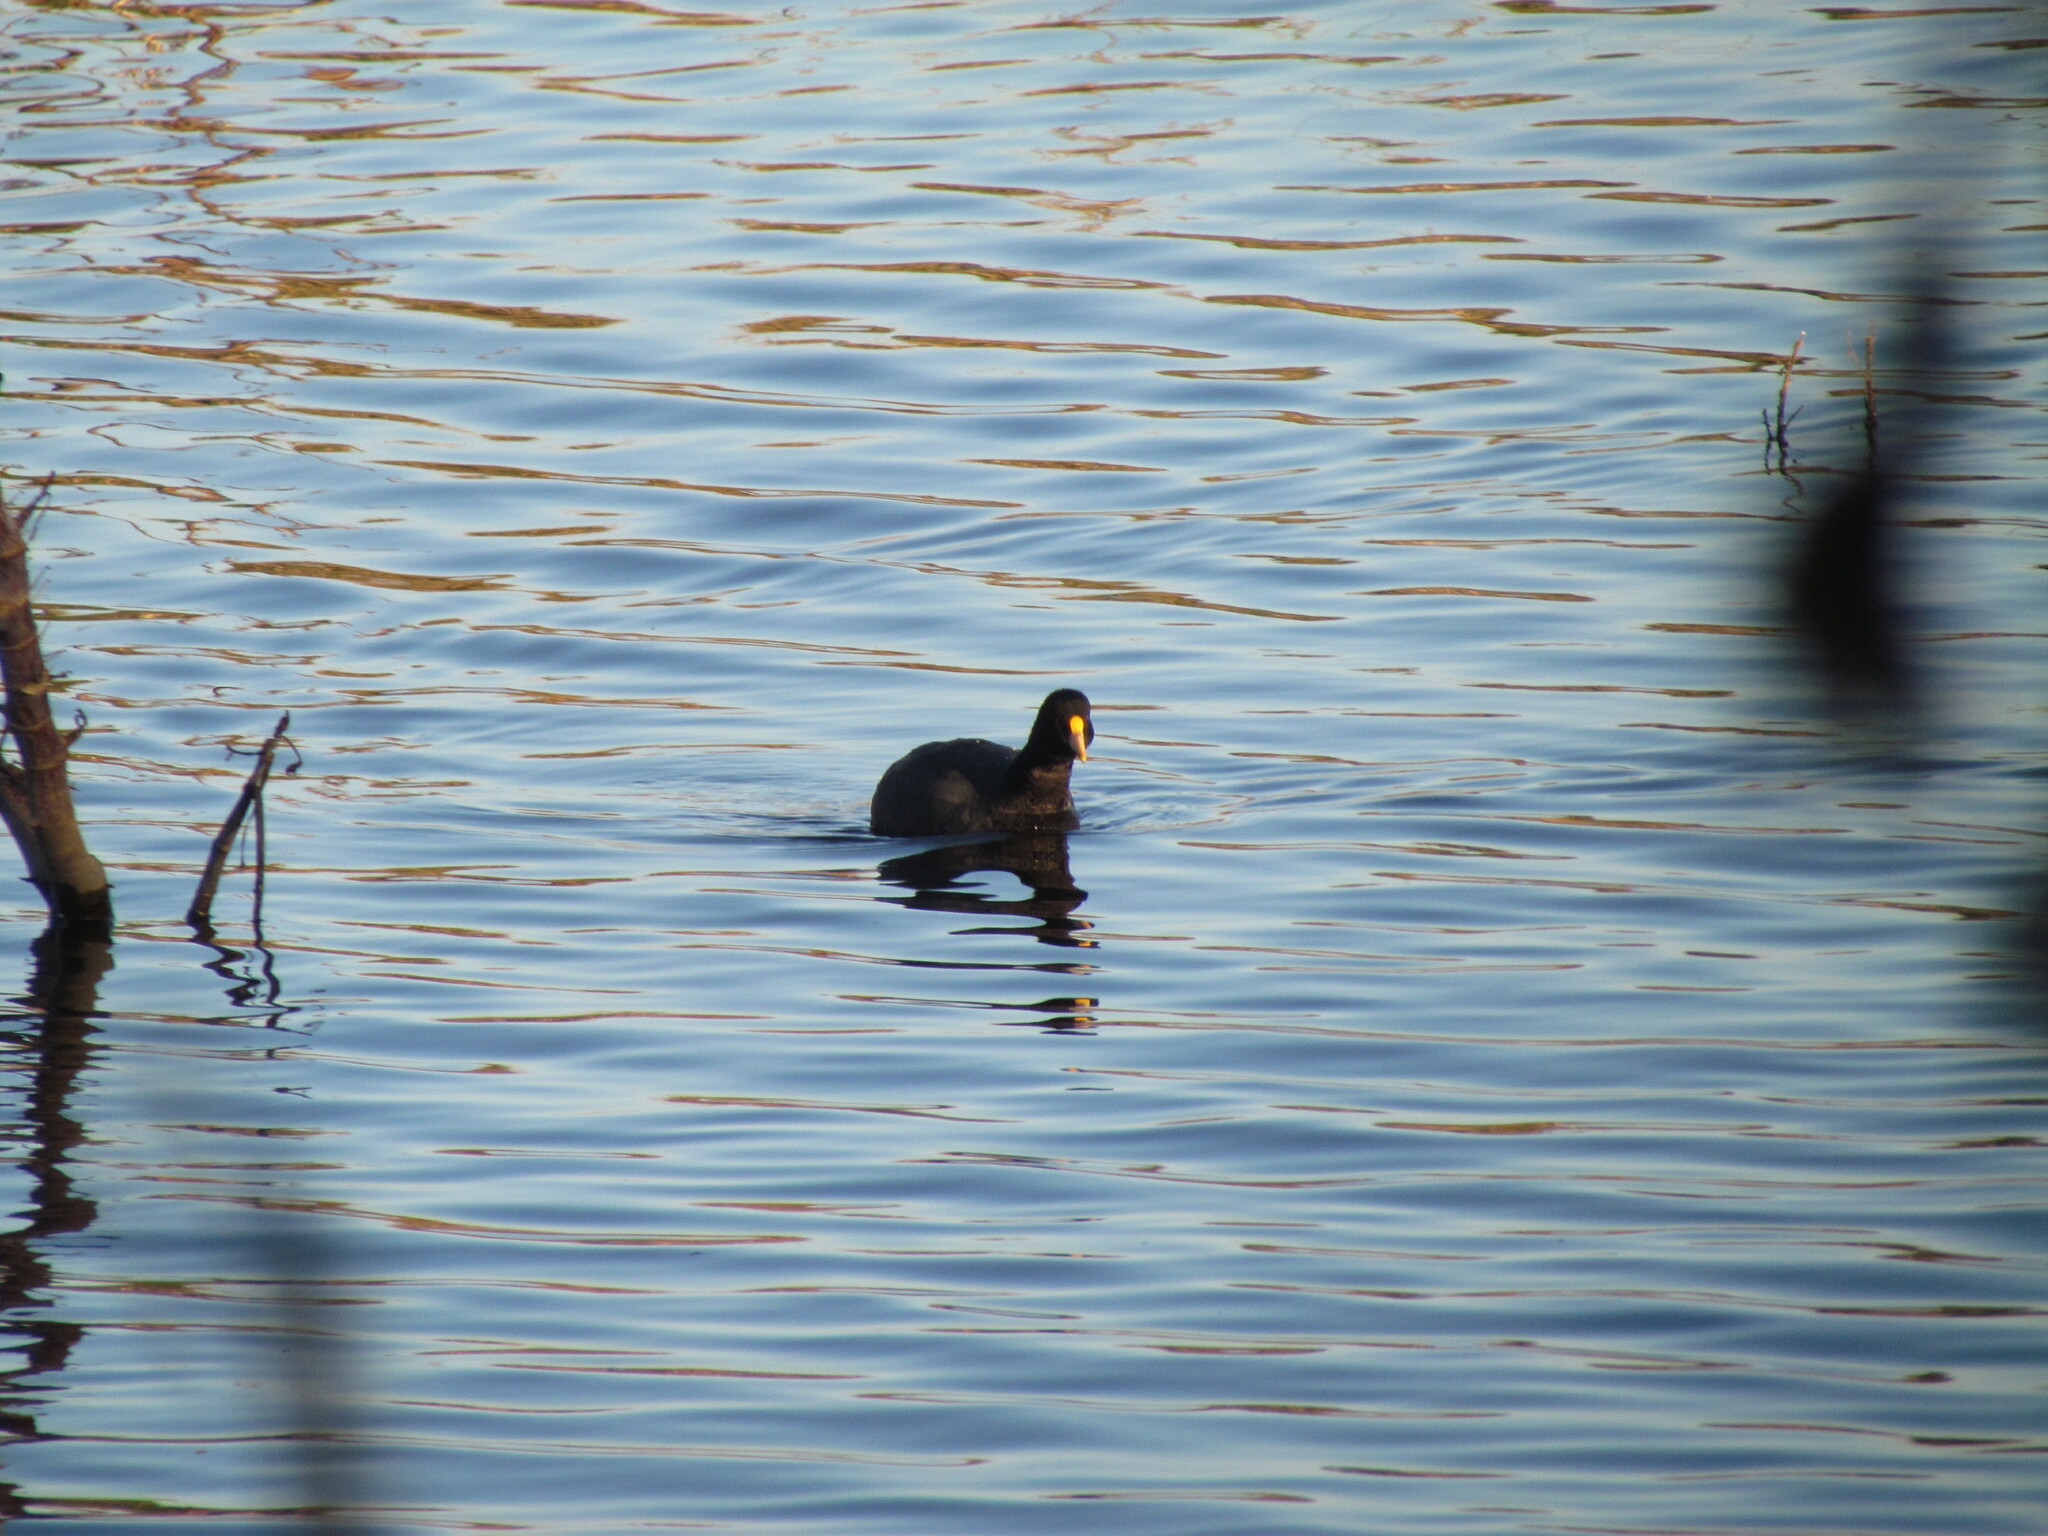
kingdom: Animalia
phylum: Chordata
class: Aves
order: Gruiformes
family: Rallidae
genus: Fulica
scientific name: Fulica leucoptera
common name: White-winged coot
